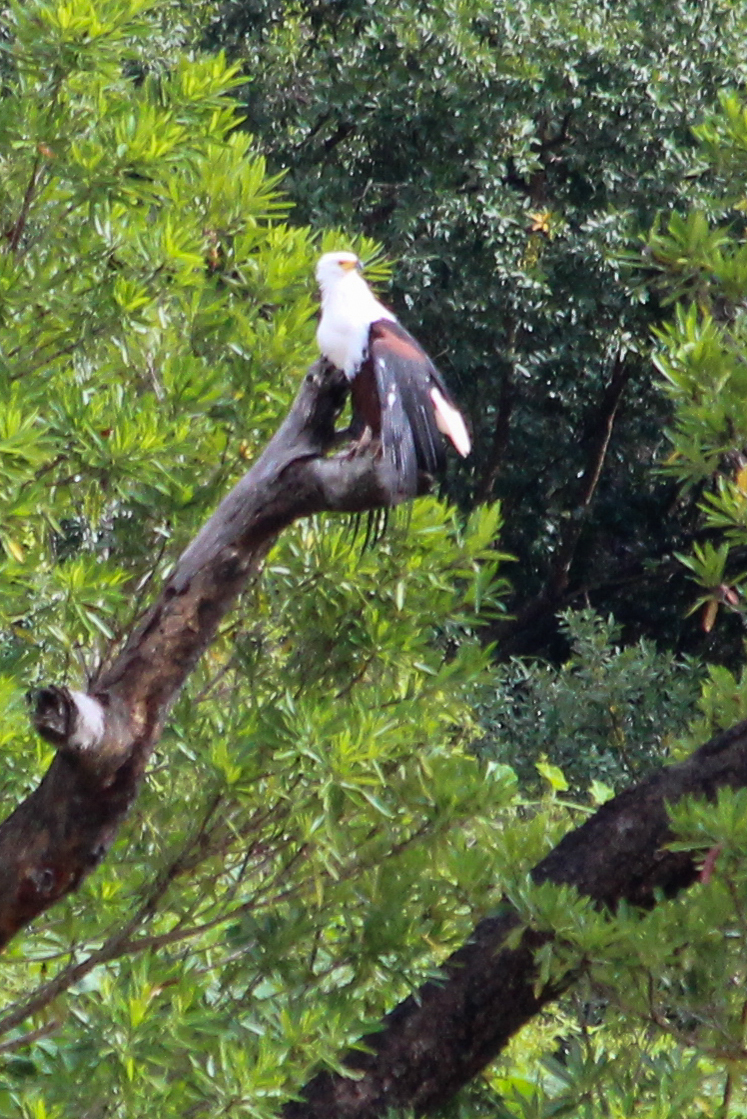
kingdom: Animalia
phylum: Chordata
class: Aves
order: Accipitriformes
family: Accipitridae
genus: Haliaeetus
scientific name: Haliaeetus vocifer
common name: African fish eagle
